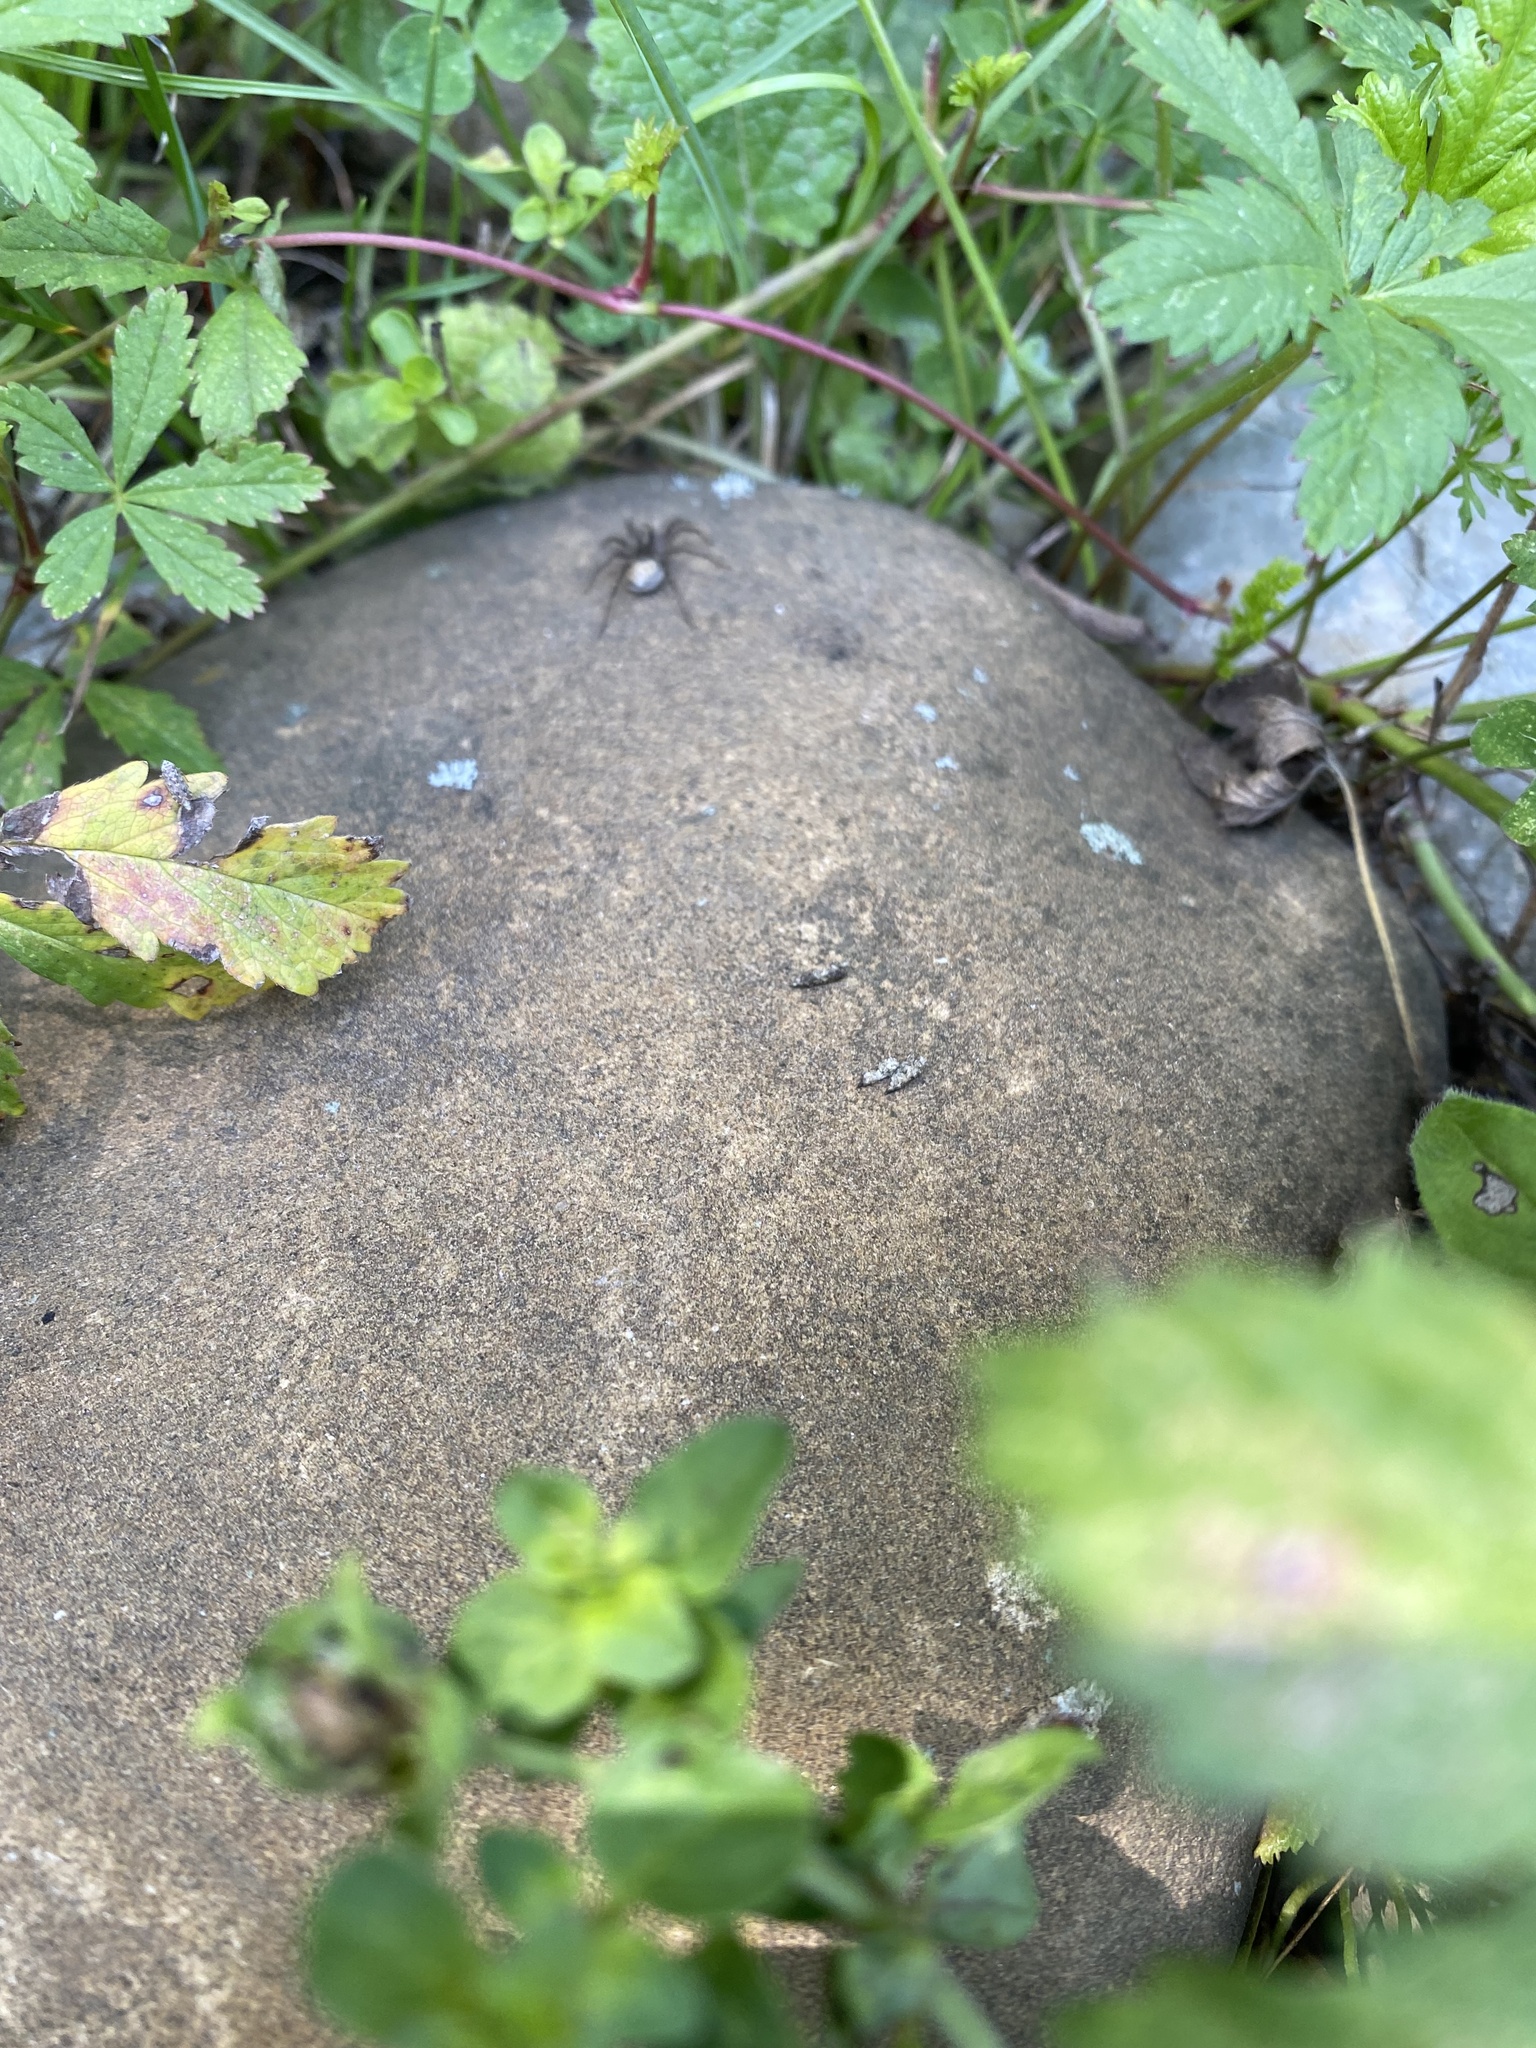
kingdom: Animalia
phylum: Arthropoda
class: Arachnida
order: Araneae
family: Lycosidae
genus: Pardosa
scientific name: Pardosa
